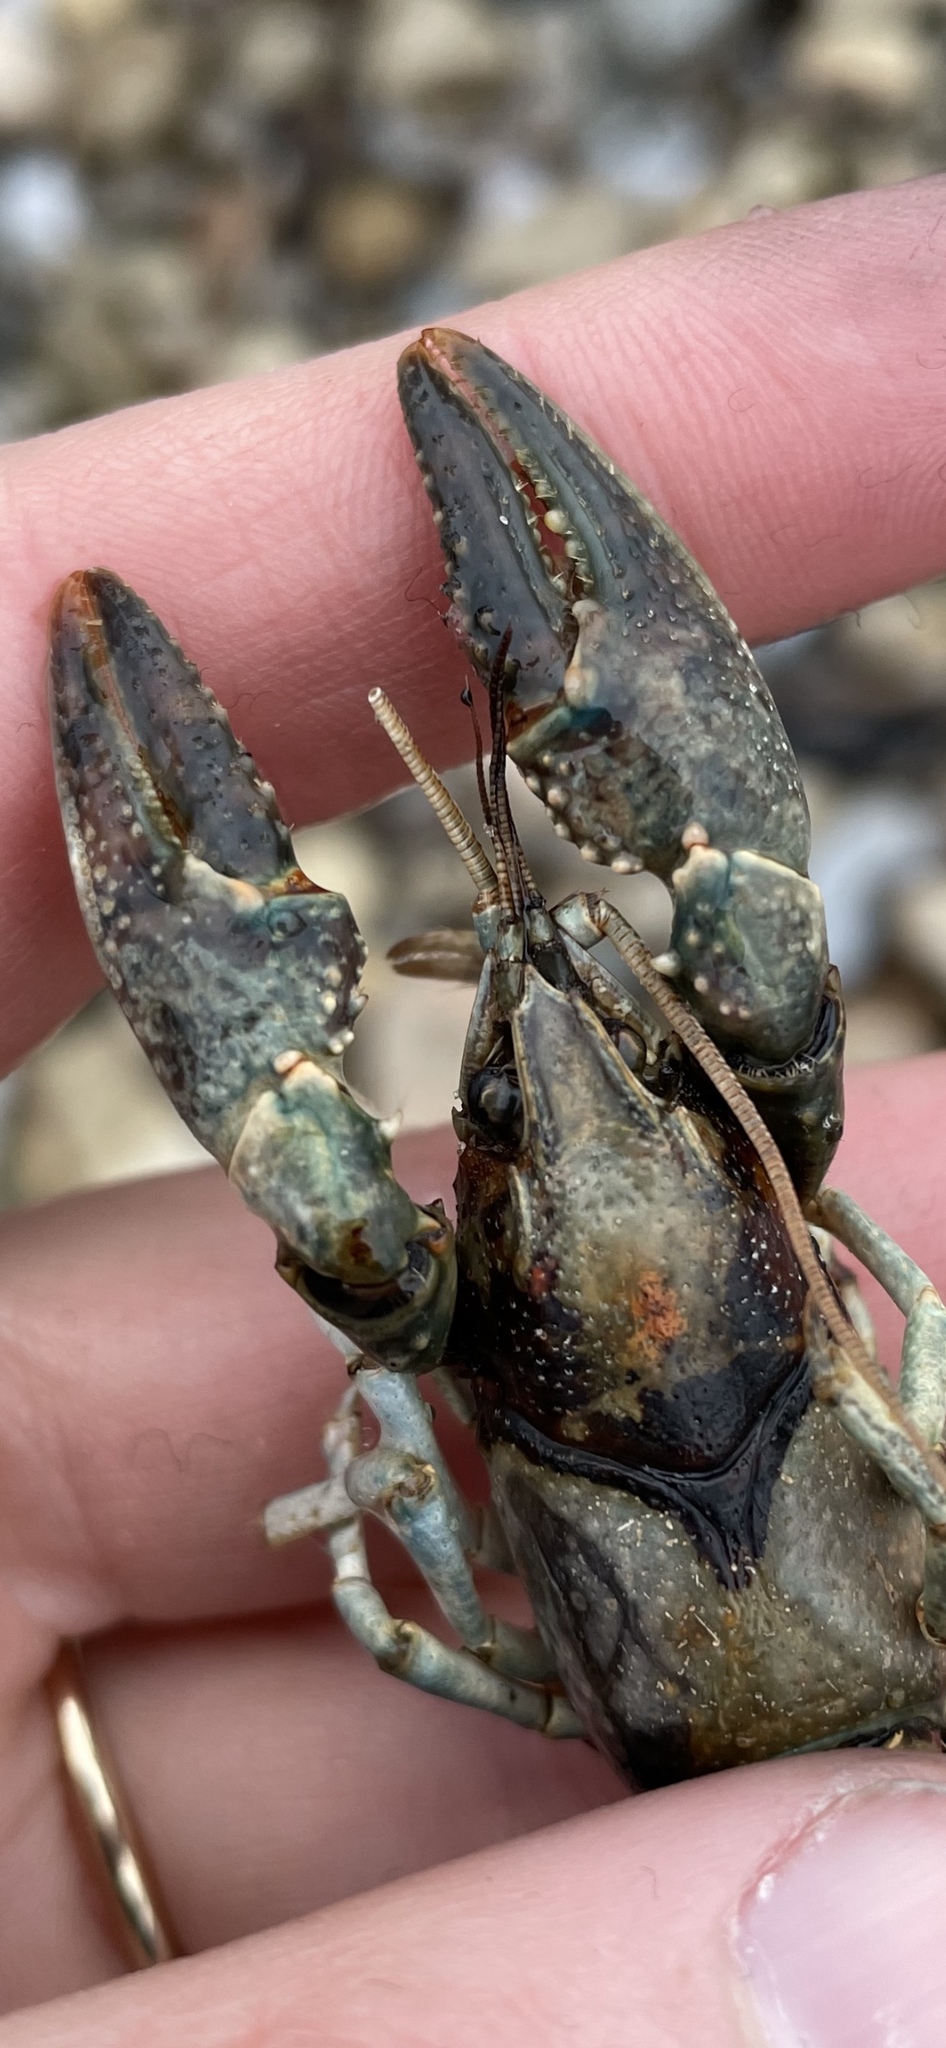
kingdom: Animalia
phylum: Arthropoda
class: Malacostraca
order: Decapoda
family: Cambaridae
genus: Faxonius
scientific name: Faxonius virilis
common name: Virile crayfish
